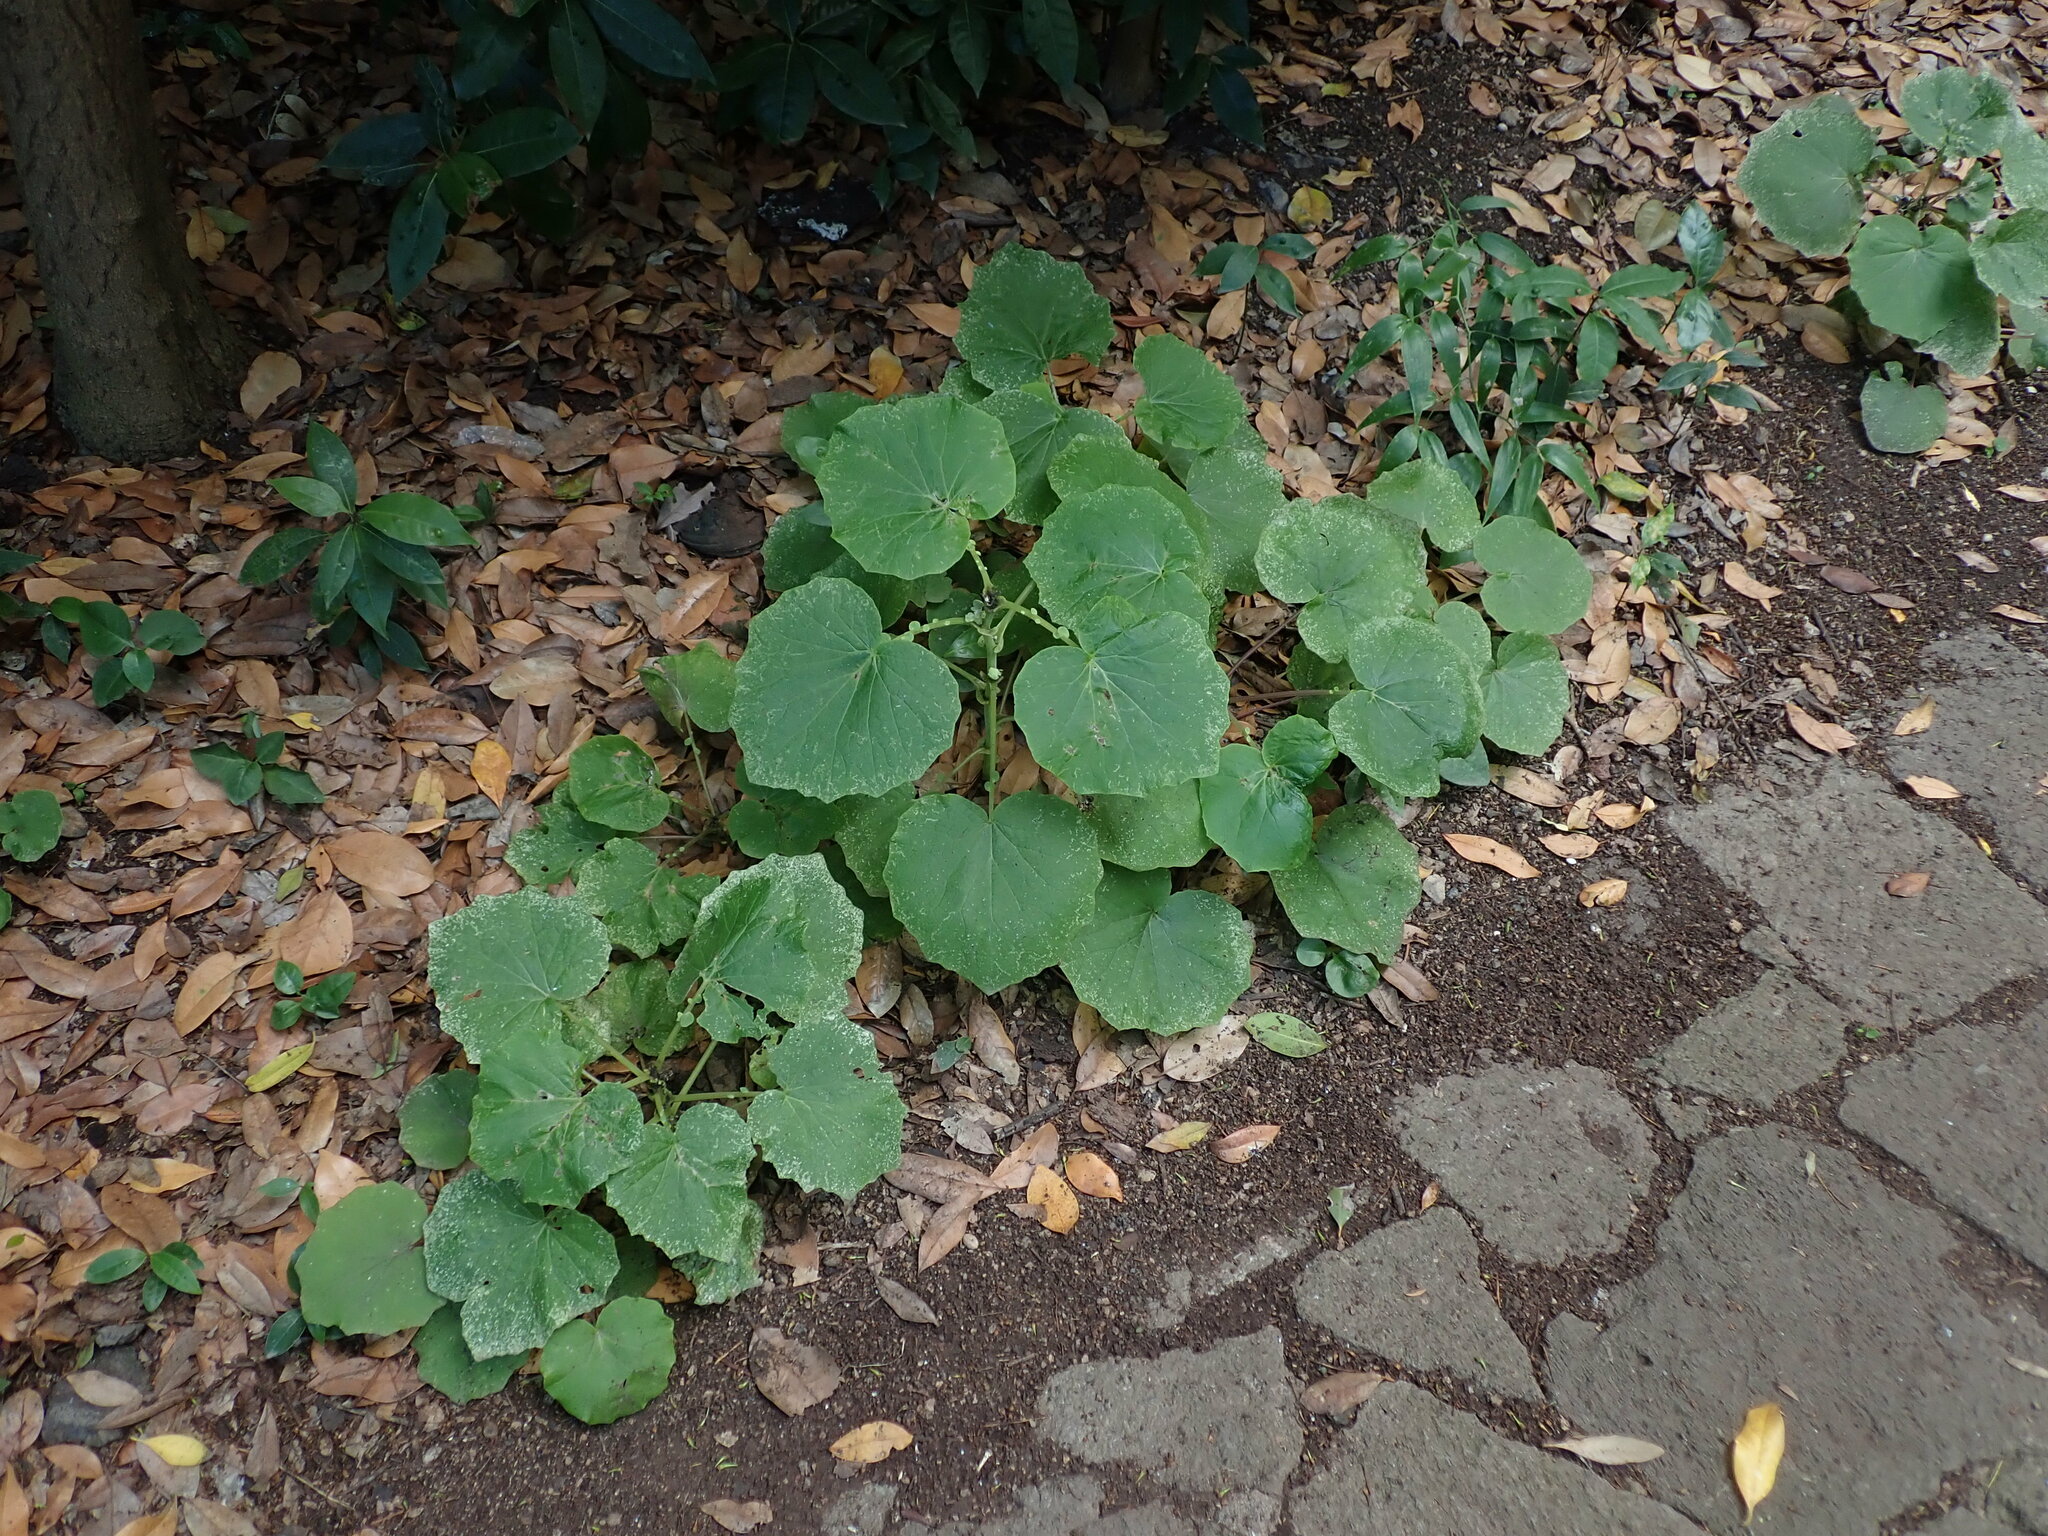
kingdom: Plantae
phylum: Tracheophyta
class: Magnoliopsida
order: Asterales
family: Asteraceae
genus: Pericallis
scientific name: Pericallis webbii
